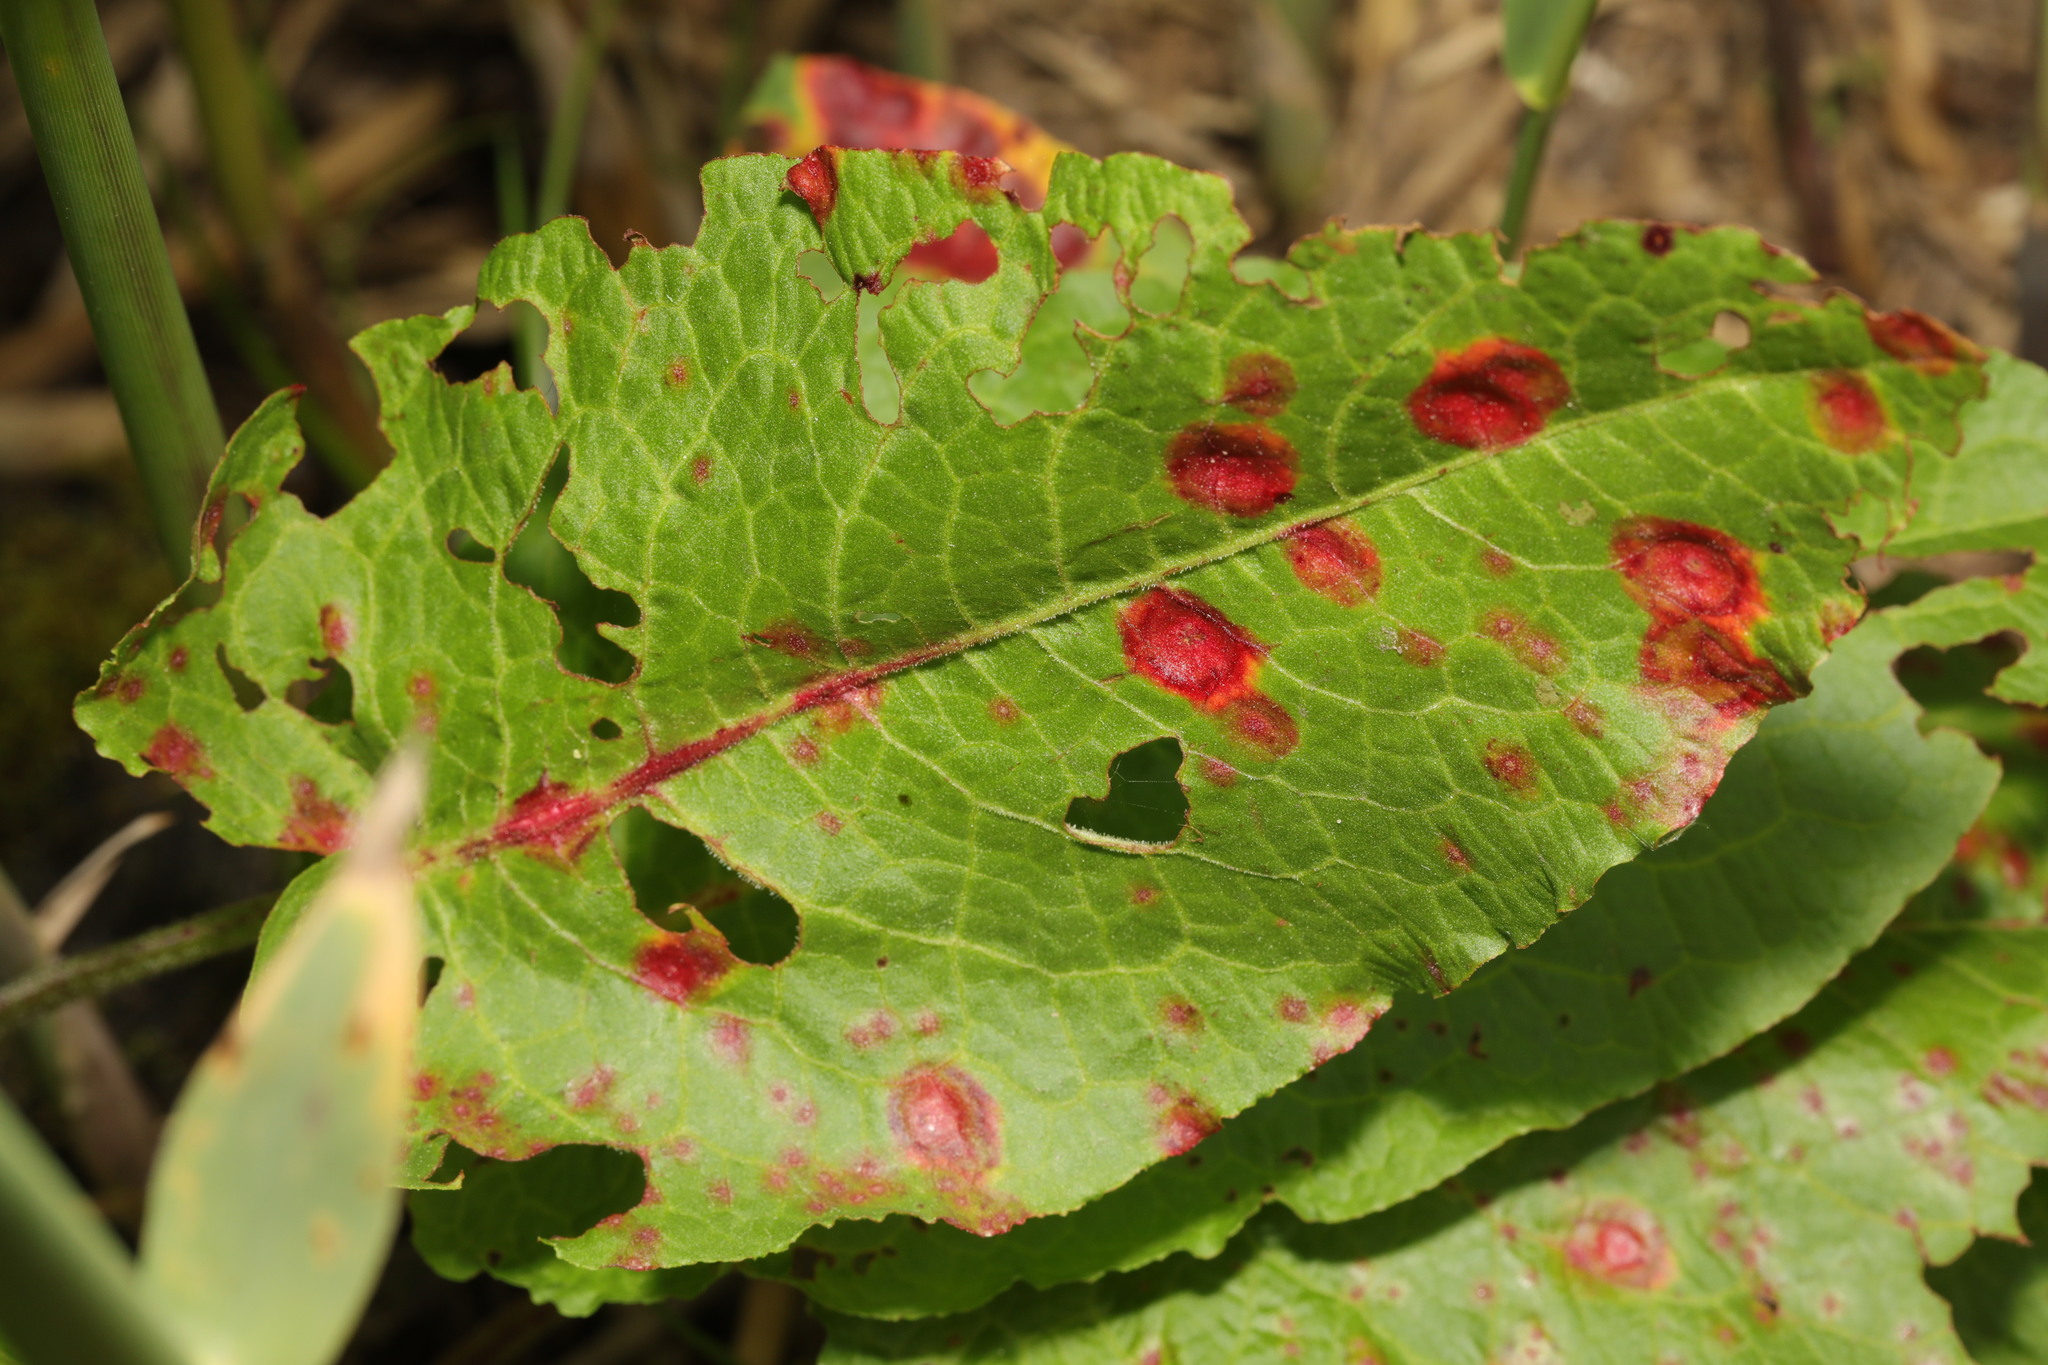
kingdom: Plantae
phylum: Tracheophyta
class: Magnoliopsida
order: Caryophyllales
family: Polygonaceae
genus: Rumex
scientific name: Rumex obtusifolius
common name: Bitter dock
